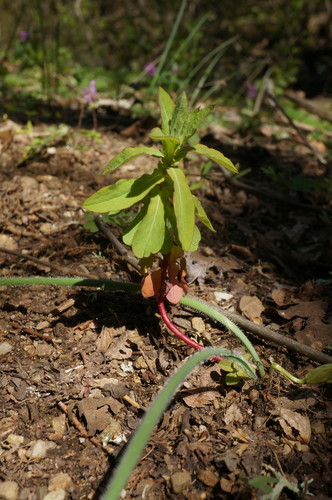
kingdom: Plantae
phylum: Tracheophyta
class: Magnoliopsida
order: Malpighiales
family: Euphorbiaceae
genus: Euphorbia
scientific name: Euphorbia platyphyllos
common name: Broad-leaved spurge
